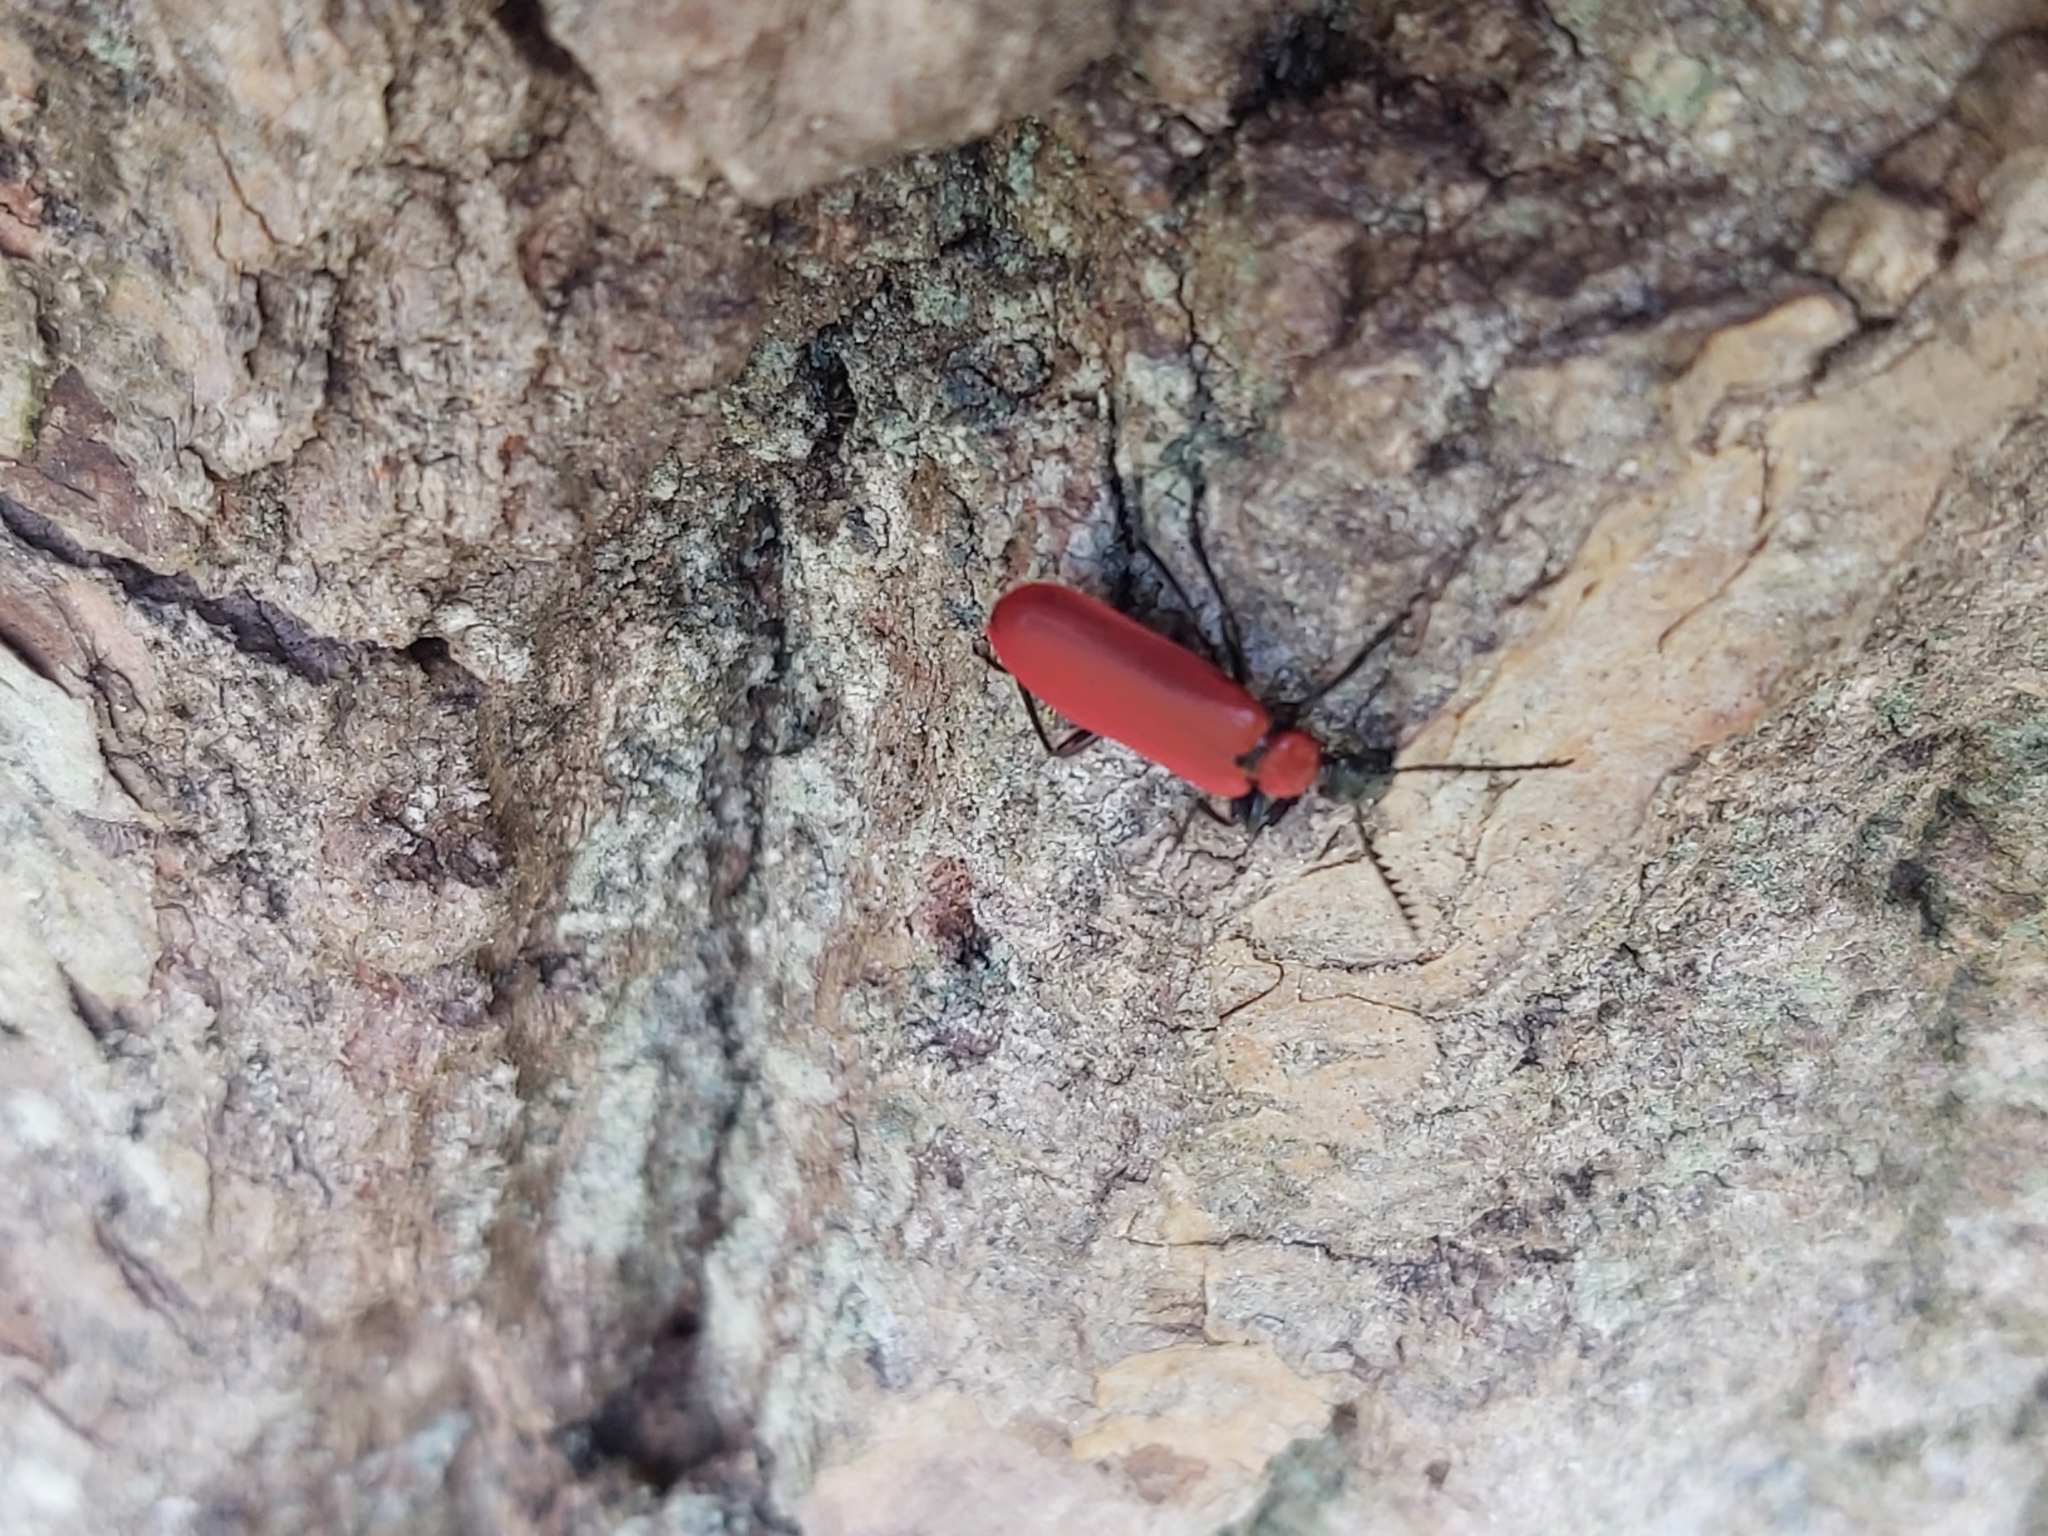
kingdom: Animalia
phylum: Arthropoda
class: Insecta
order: Coleoptera
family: Pyrochroidae
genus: Pyrochroa
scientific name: Pyrochroa coccinea
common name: Black-headed cardinal beetle
